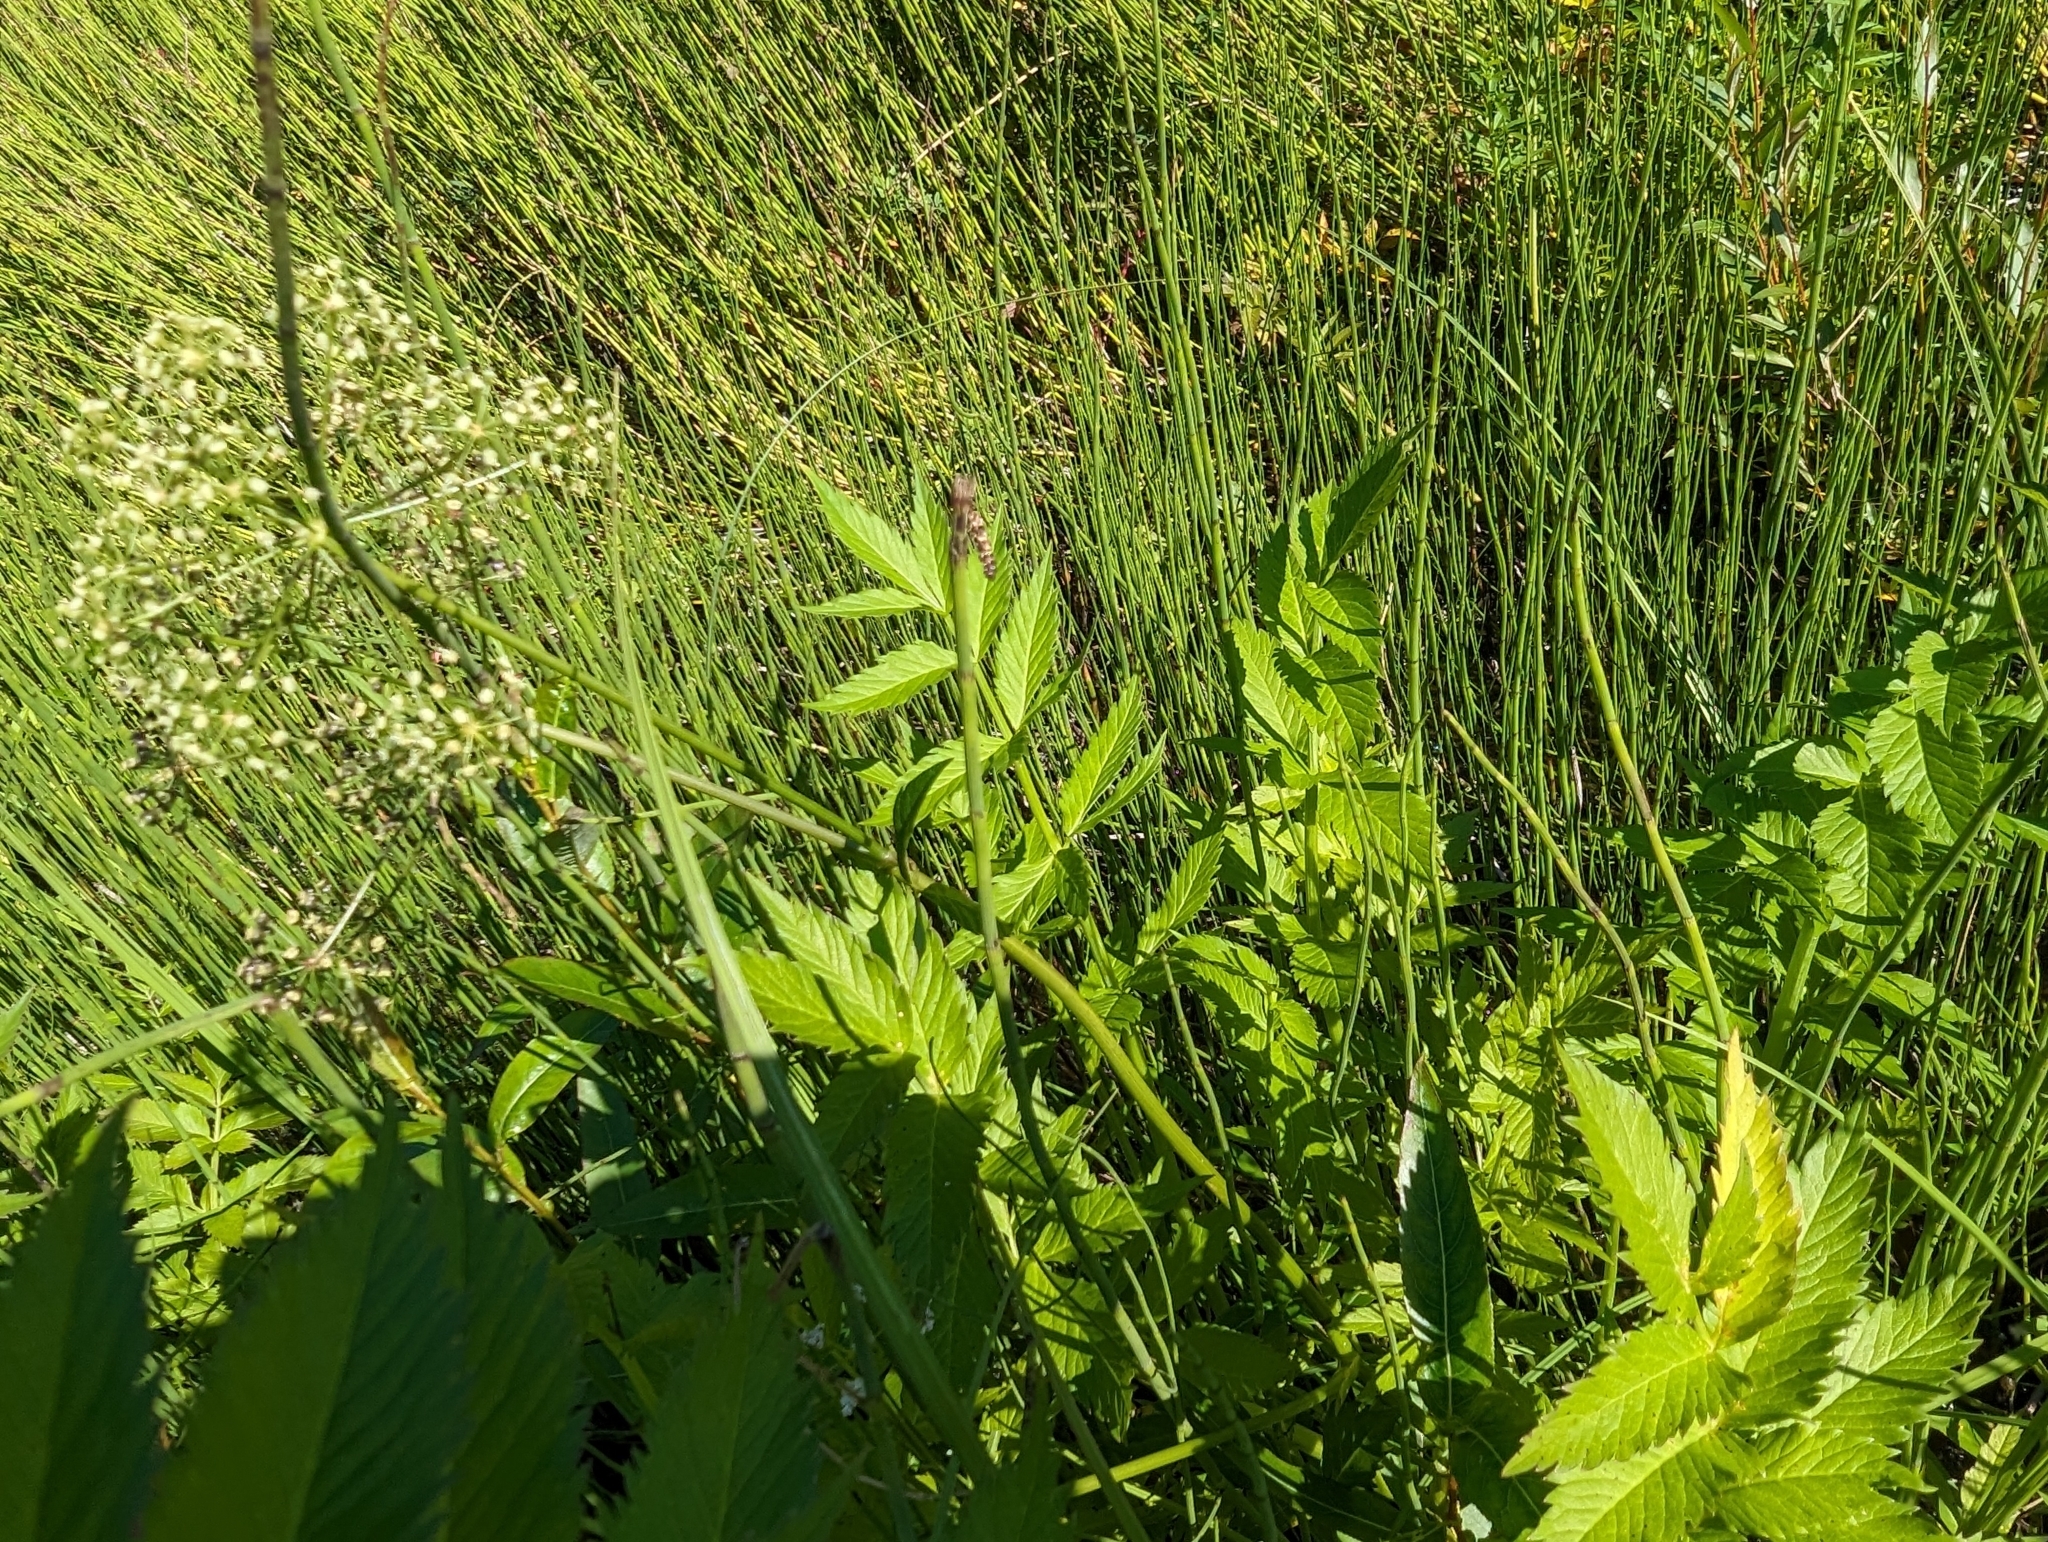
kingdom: Plantae
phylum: Tracheophyta
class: Magnoliopsida
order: Apiales
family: Apiaceae
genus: Cicuta
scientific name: Cicuta douglasii
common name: Western water-hemlock
